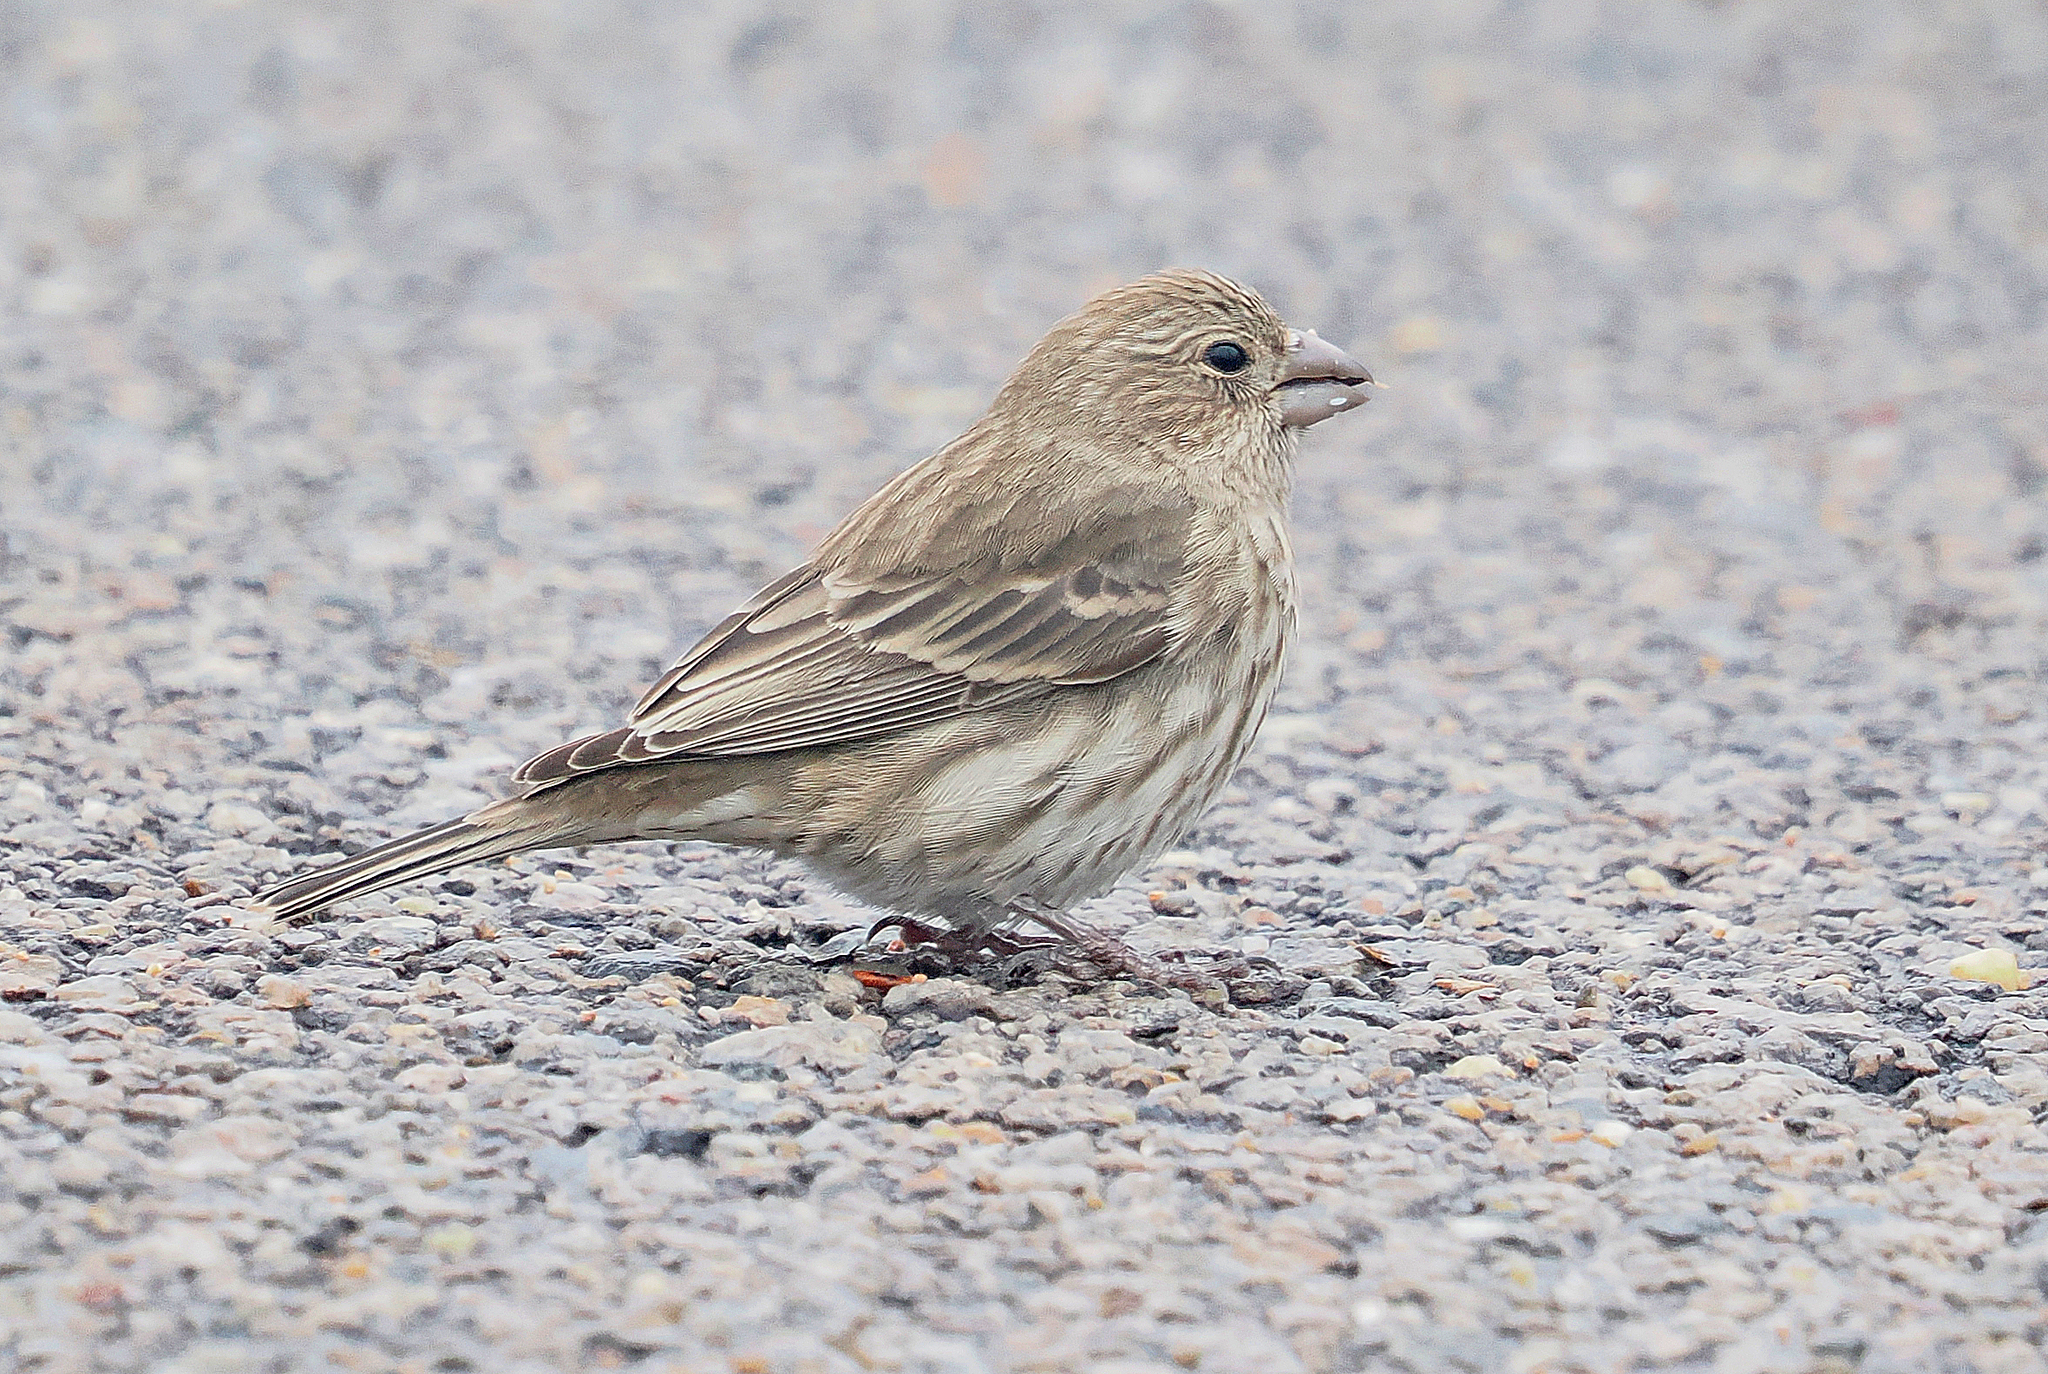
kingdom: Animalia
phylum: Chordata
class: Aves
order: Passeriformes
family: Fringillidae
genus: Haemorhous
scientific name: Haemorhous mexicanus
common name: House finch
